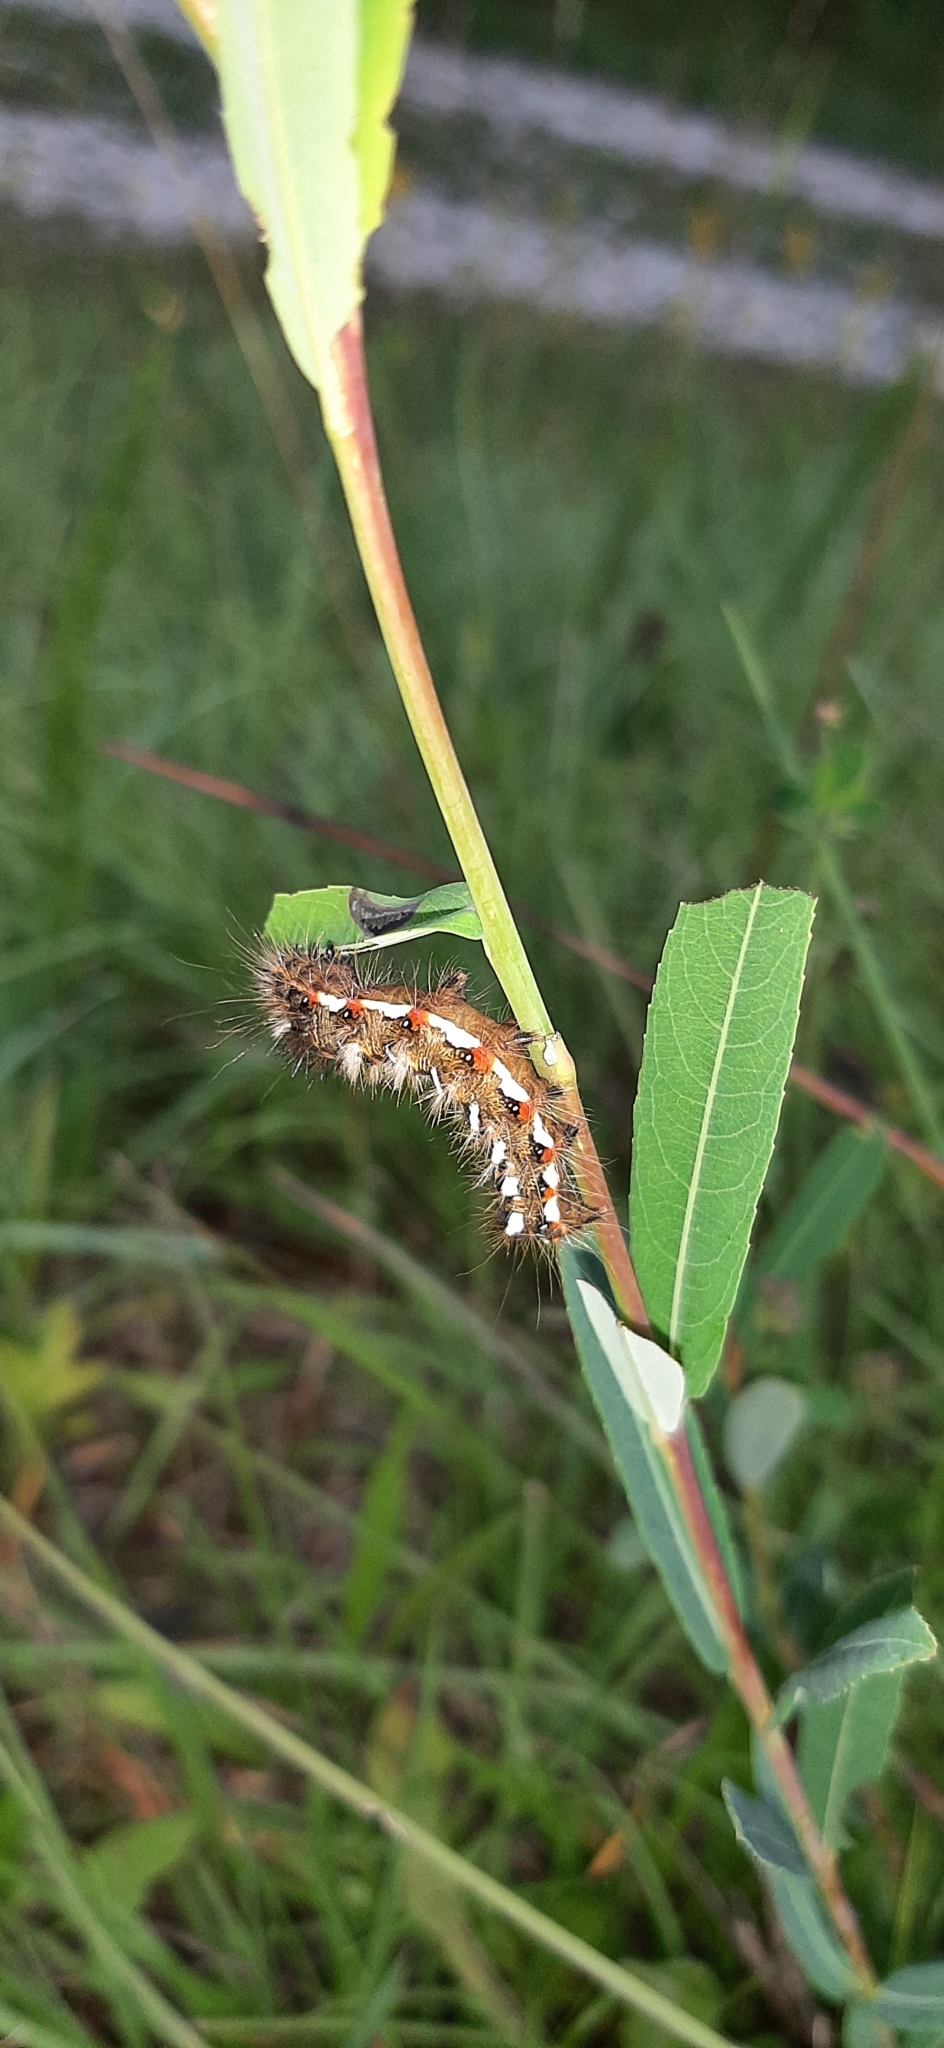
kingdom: Animalia
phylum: Arthropoda
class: Insecta
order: Lepidoptera
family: Noctuidae
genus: Acronicta
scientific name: Acronicta rumicis
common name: Knot grass
